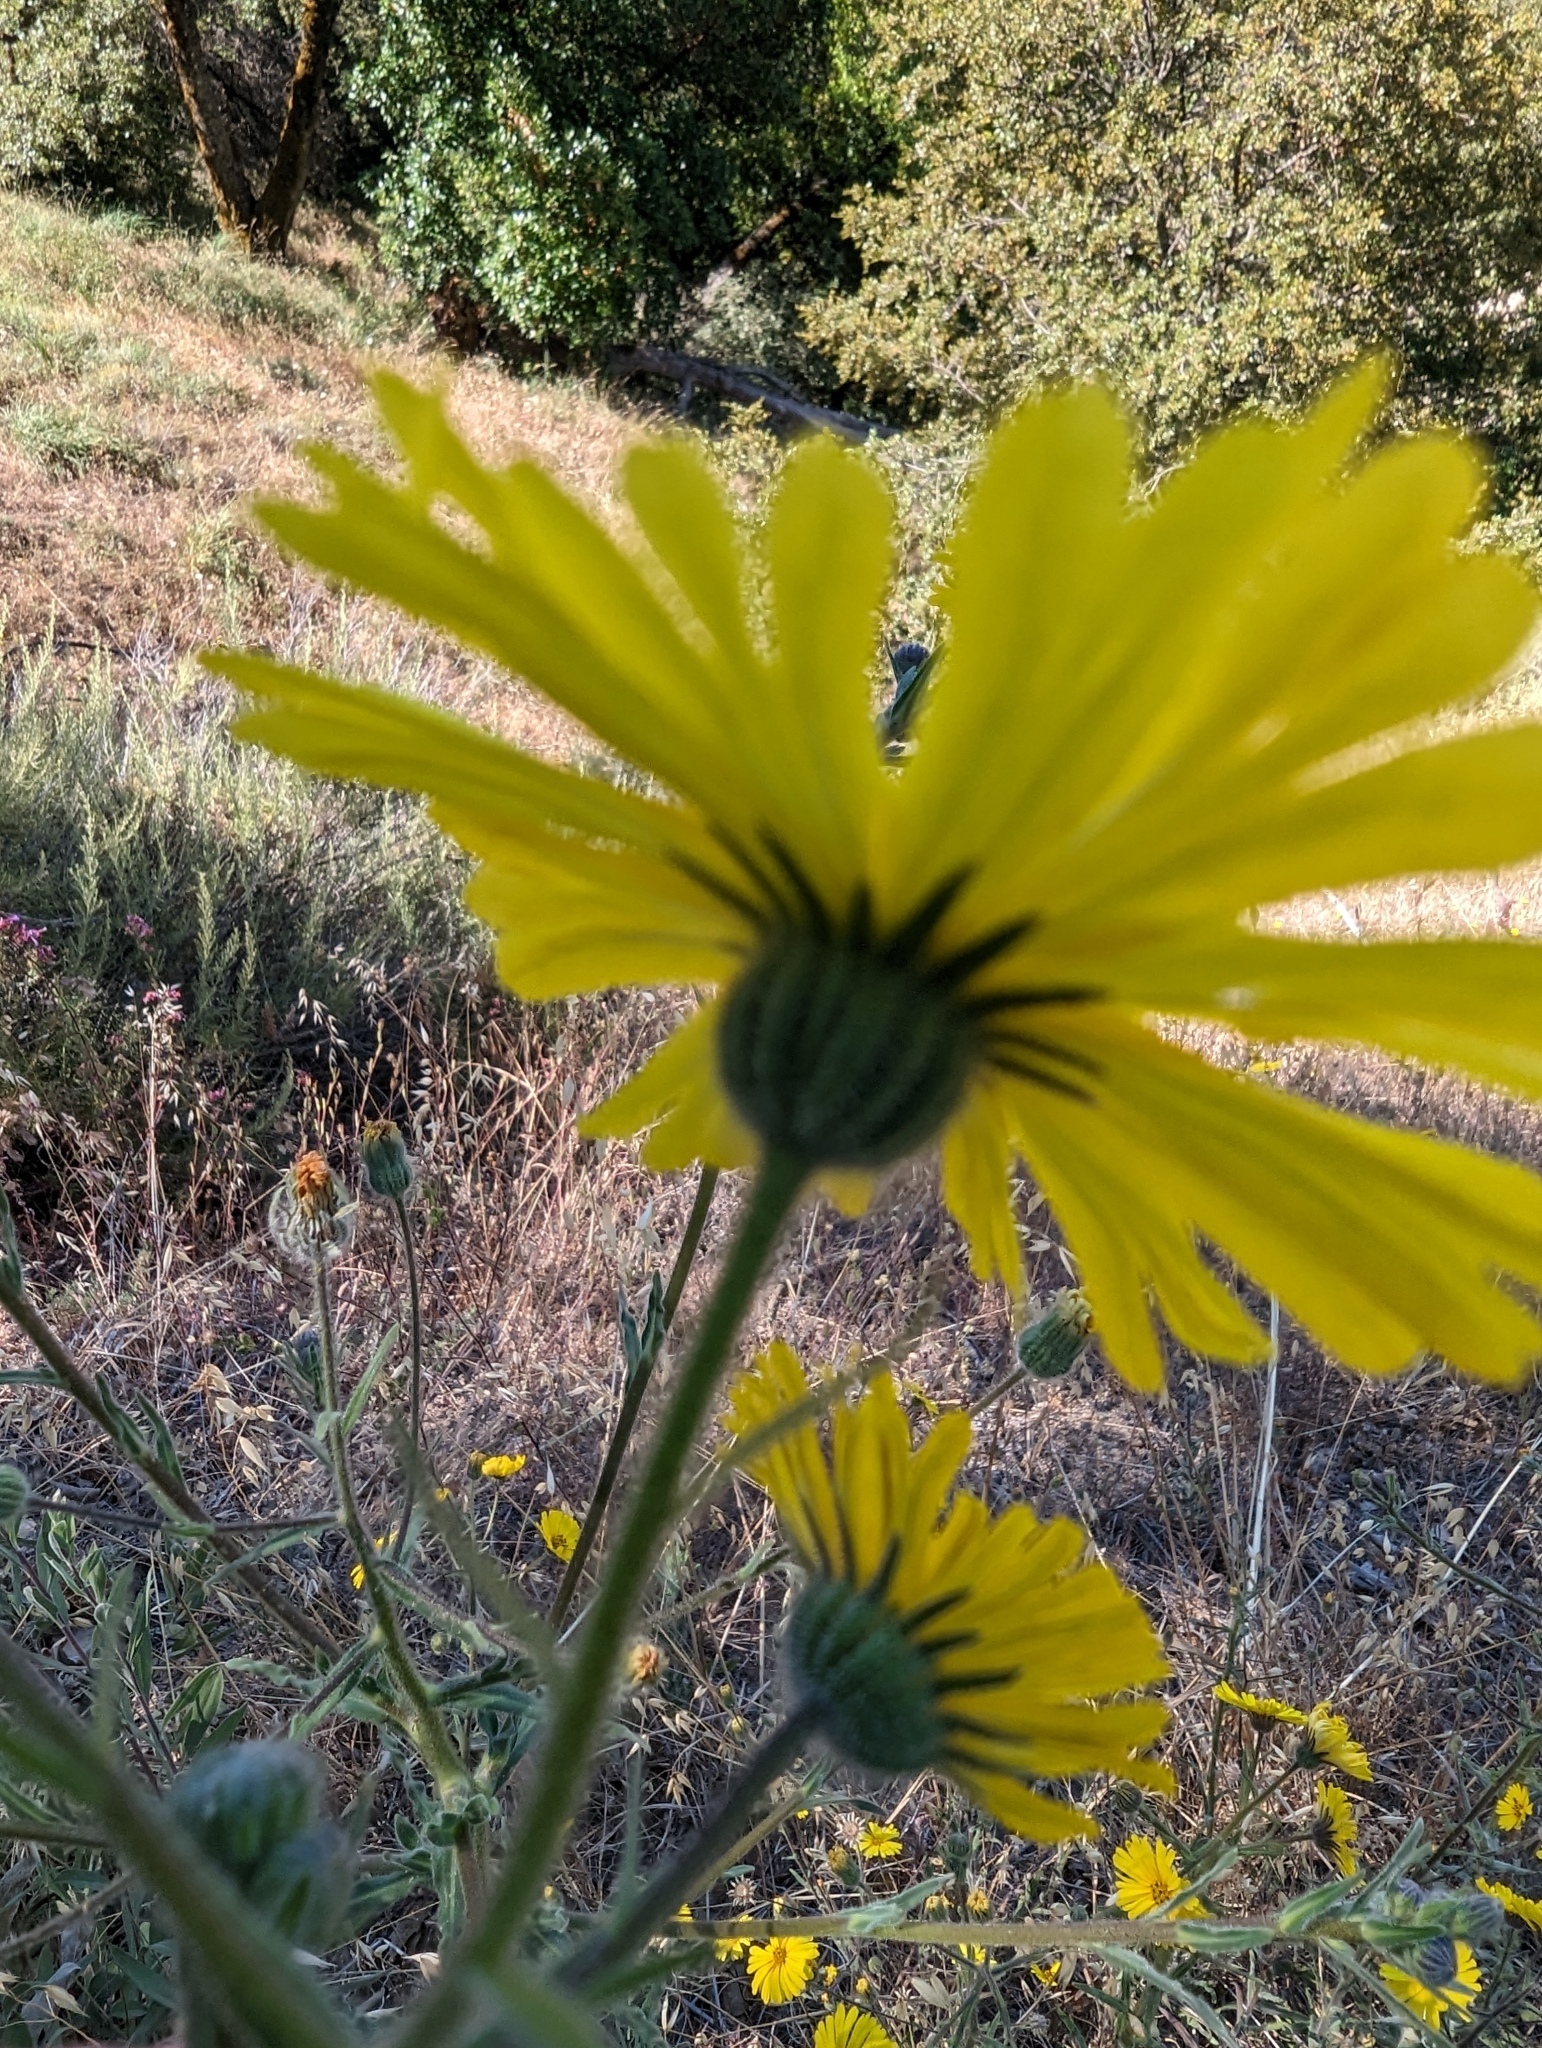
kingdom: Plantae
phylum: Tracheophyta
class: Magnoliopsida
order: Asterales
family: Asteraceae
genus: Madia
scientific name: Madia elegans
